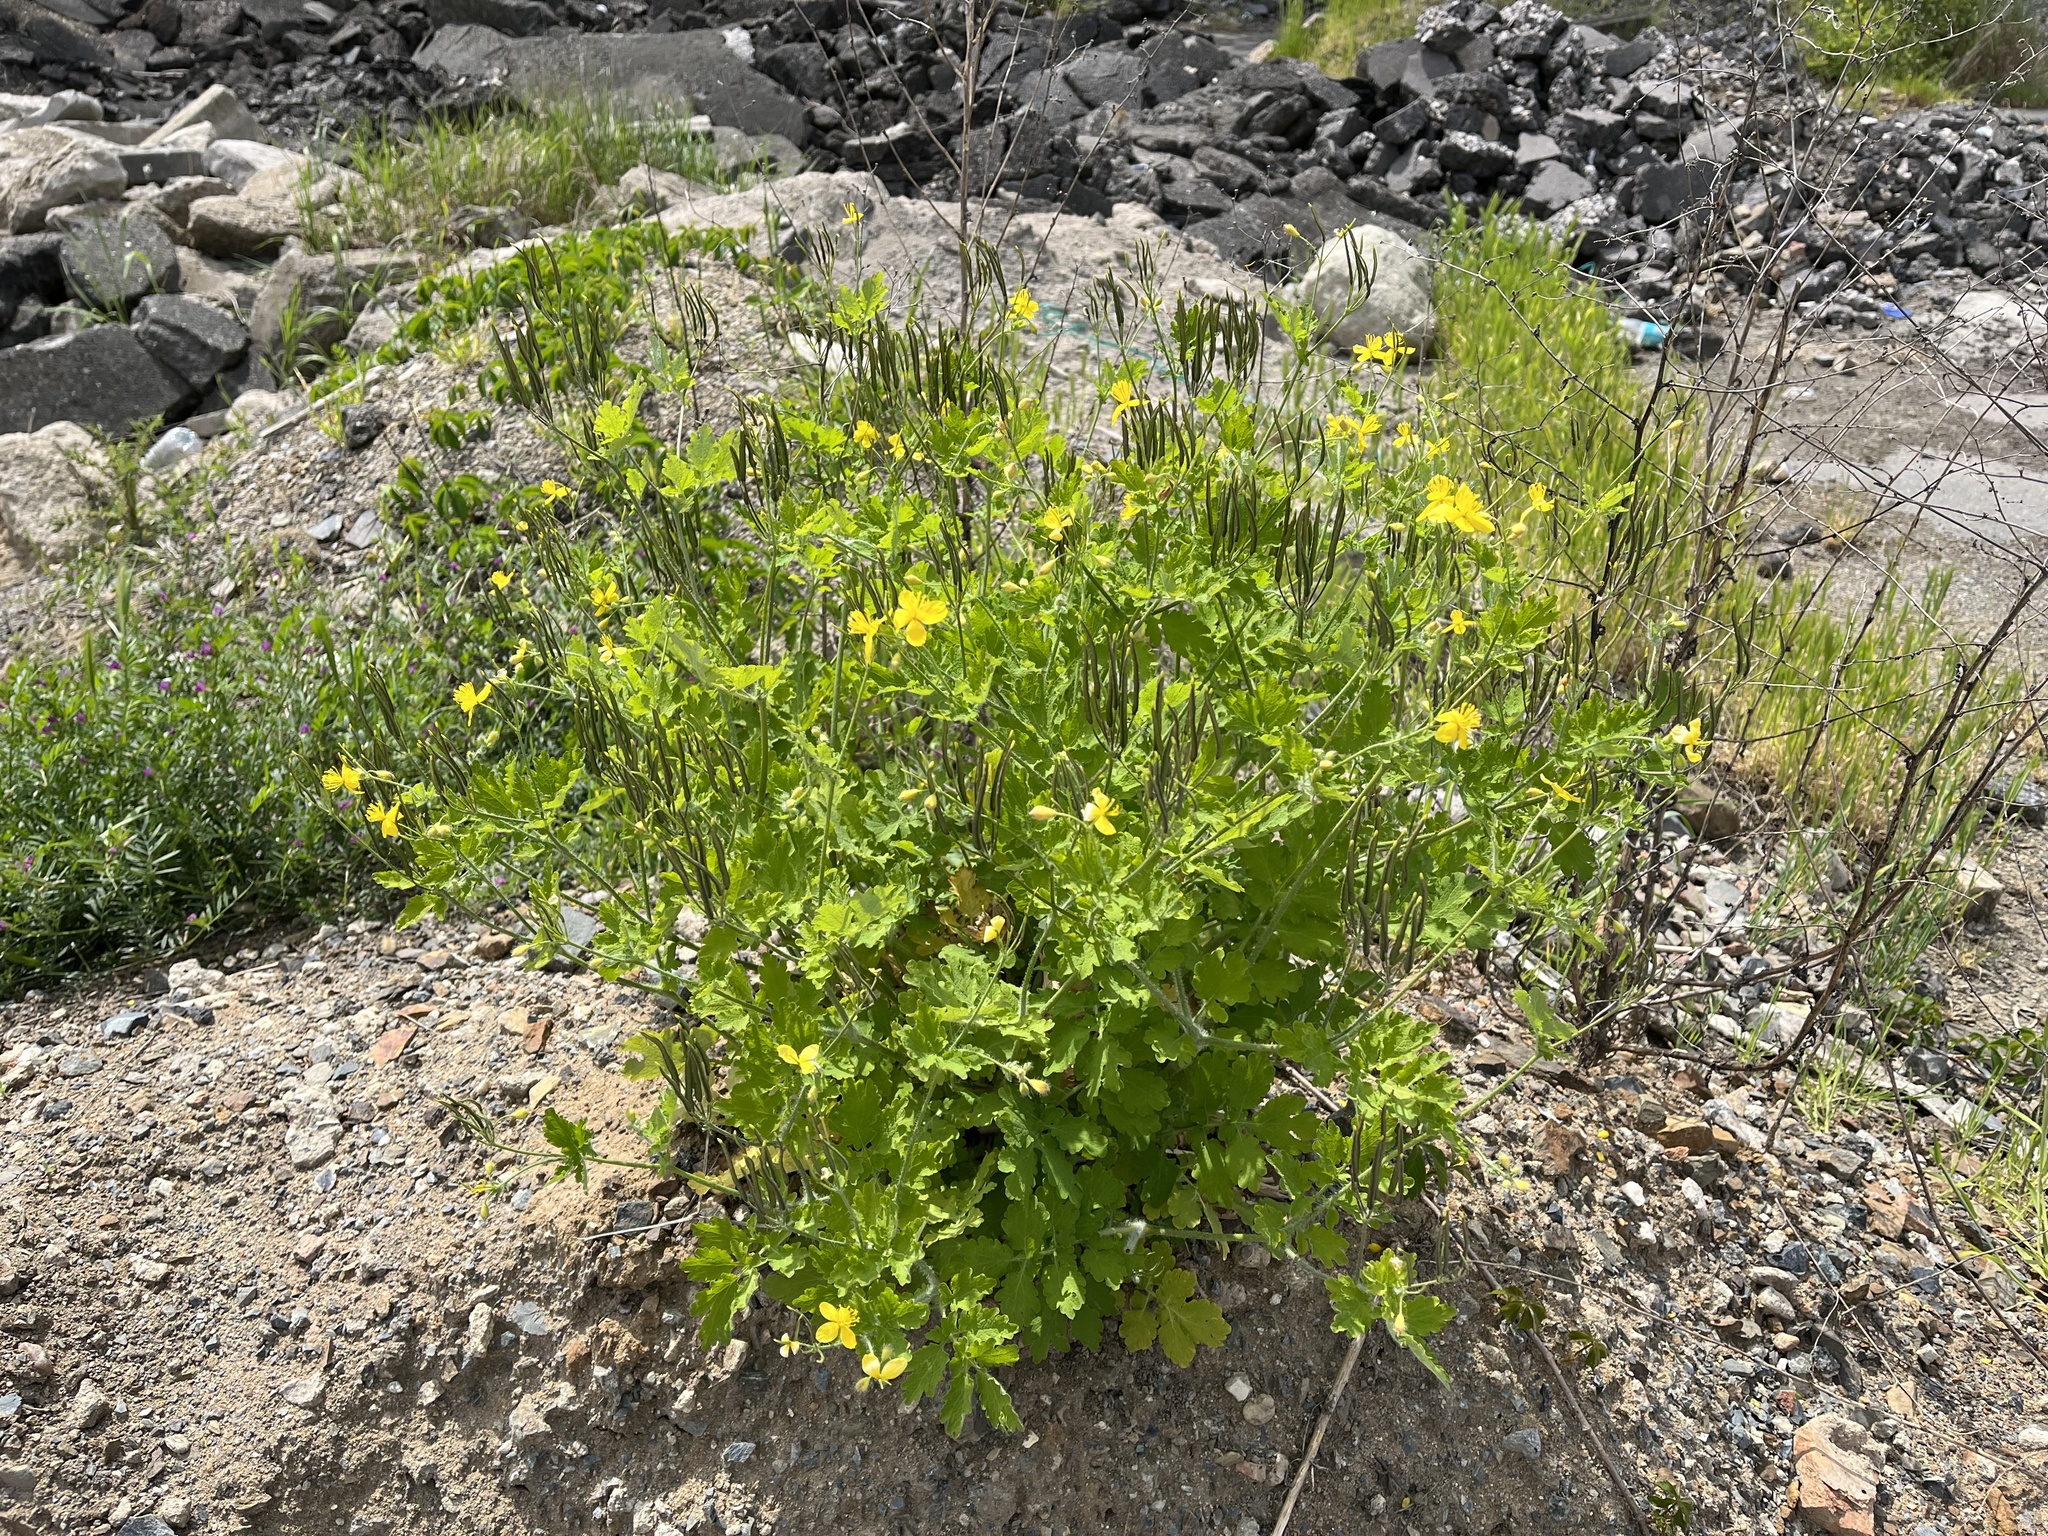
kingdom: Plantae
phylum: Tracheophyta
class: Magnoliopsida
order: Ranunculales
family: Papaveraceae
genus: Chelidonium
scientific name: Chelidonium majus
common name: Greater celandine
